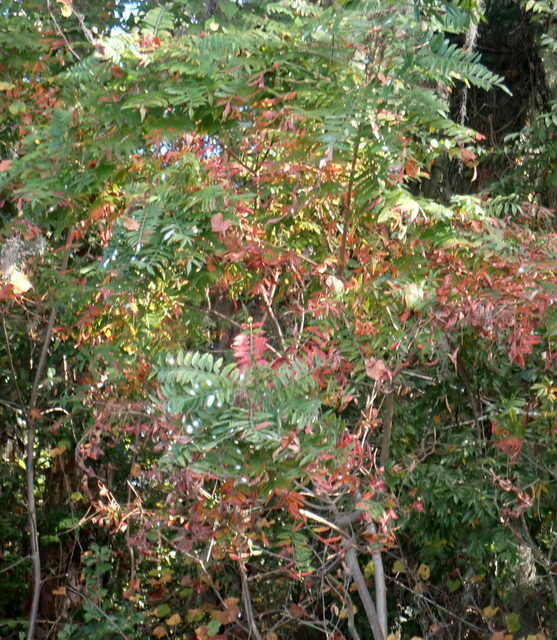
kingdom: Plantae
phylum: Tracheophyta
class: Magnoliopsida
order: Sapindales
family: Anacardiaceae
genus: Rhus
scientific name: Rhus copallina
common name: Shining sumac
